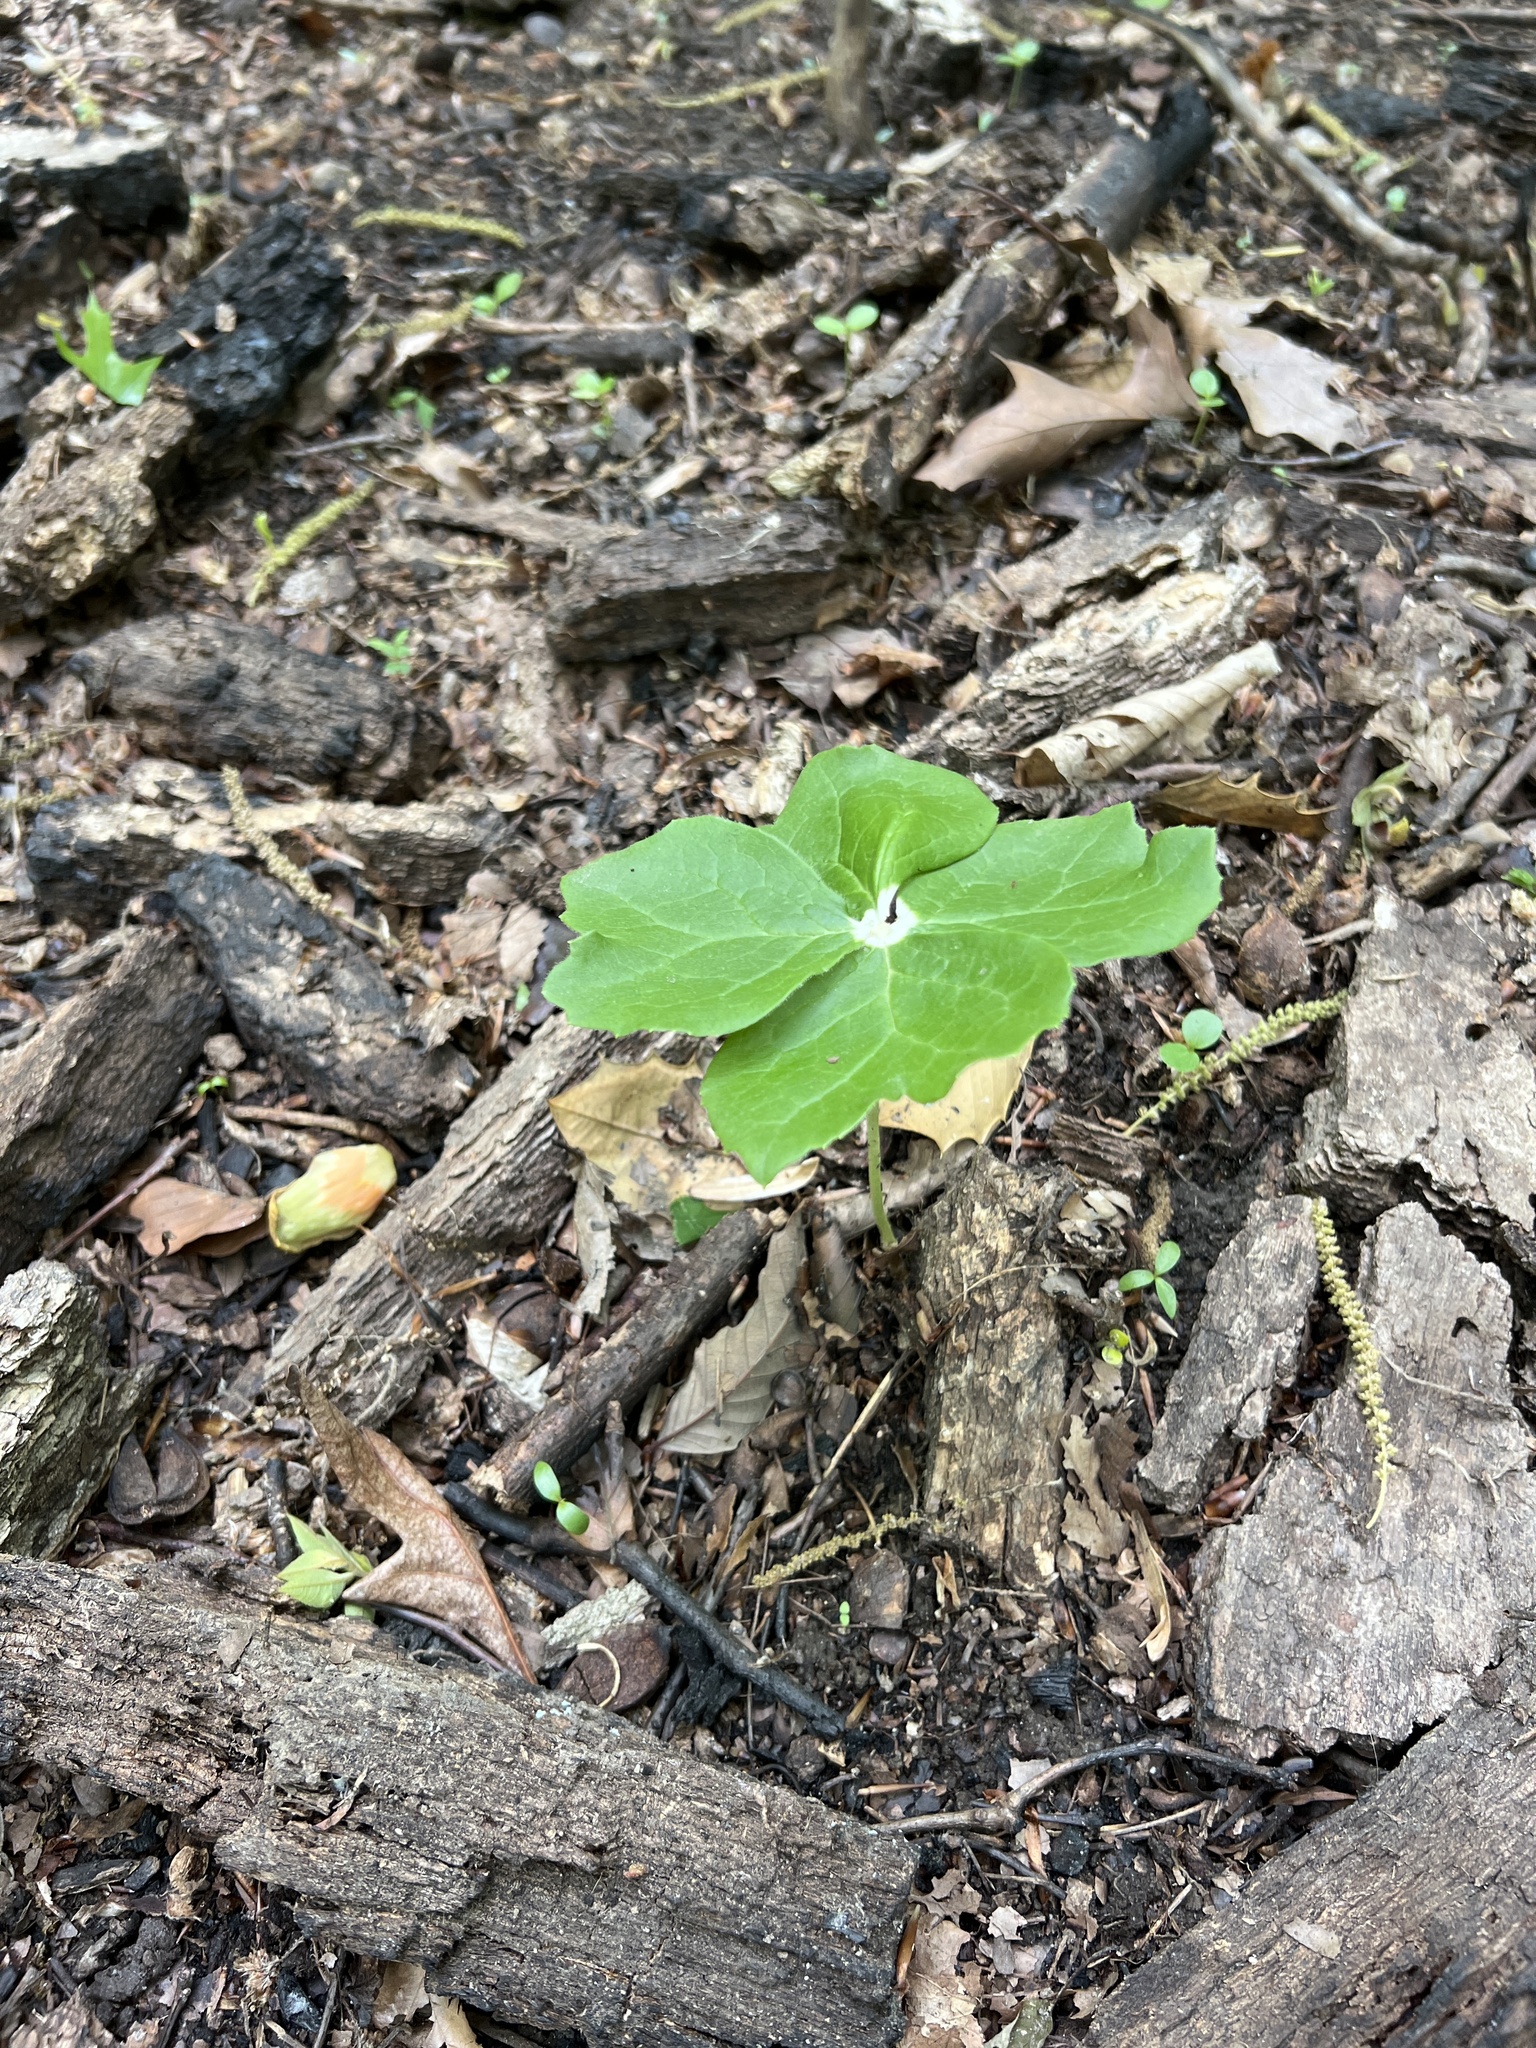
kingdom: Plantae
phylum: Tracheophyta
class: Magnoliopsida
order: Ranunculales
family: Berberidaceae
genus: Podophyllum
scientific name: Podophyllum peltatum
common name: Wild mandrake
